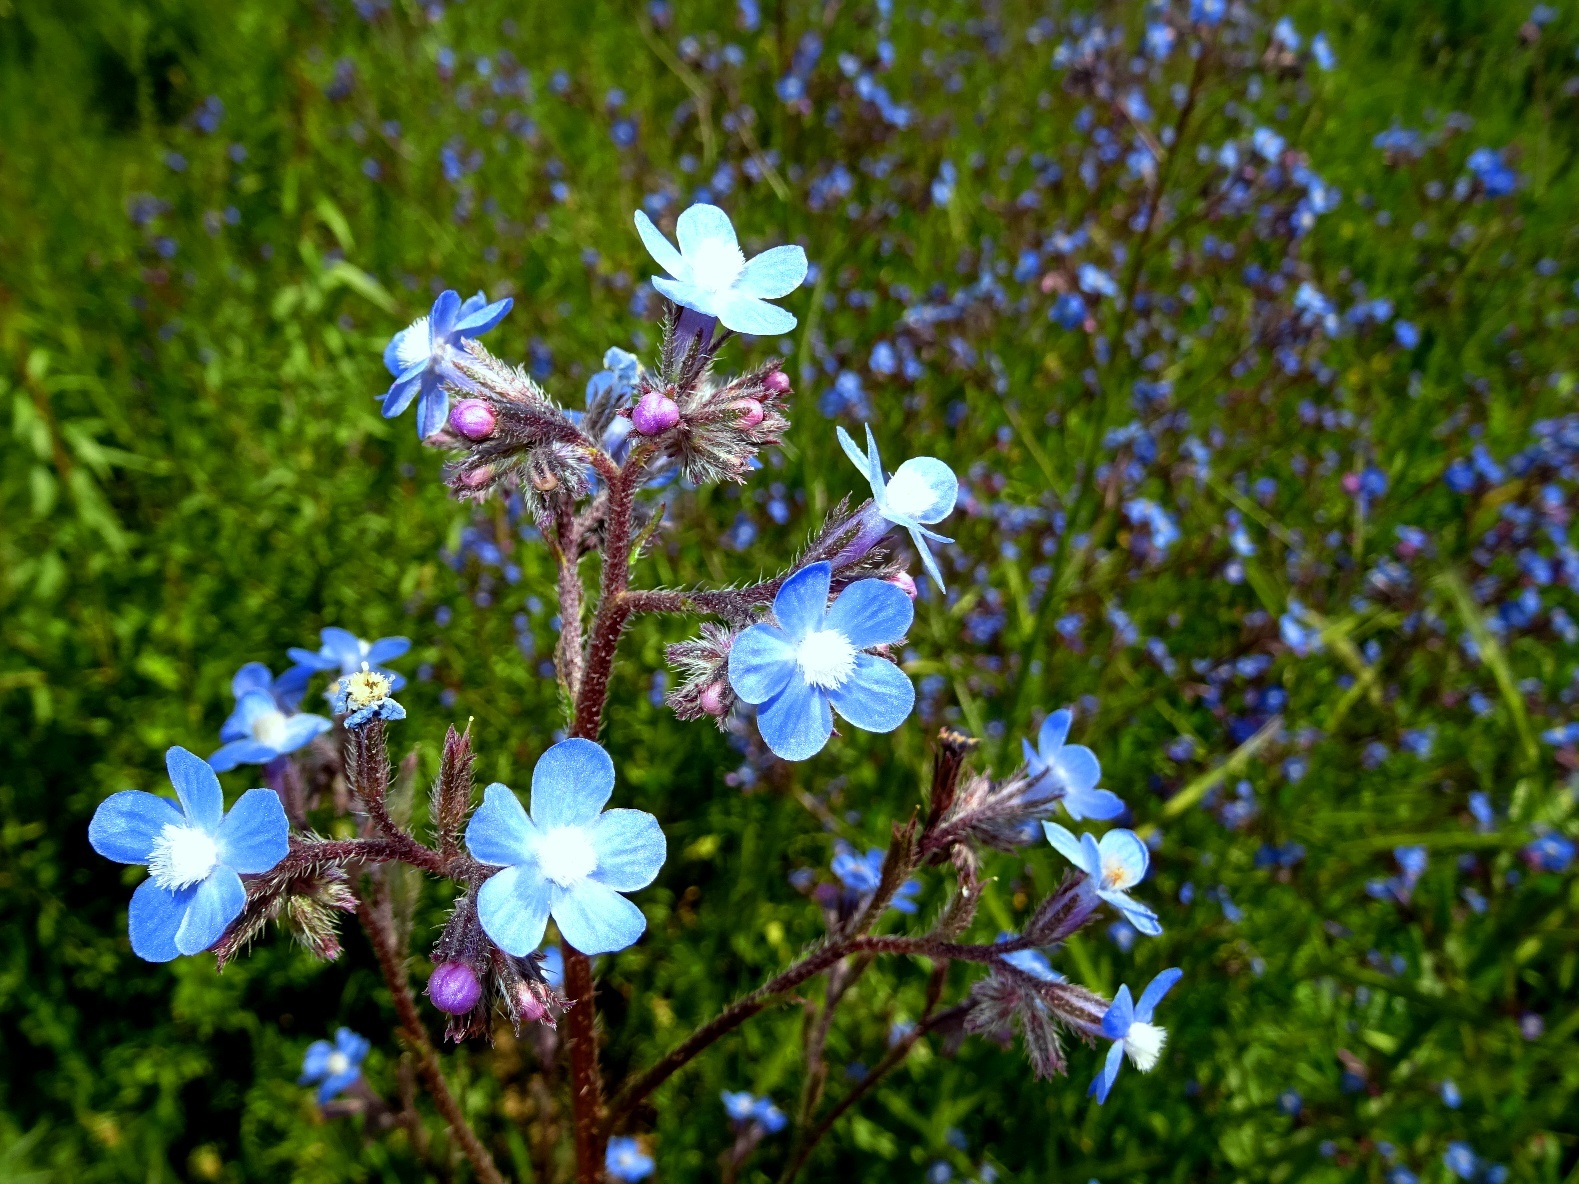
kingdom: Plantae
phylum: Tracheophyta
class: Magnoliopsida
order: Boraginales
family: Boraginaceae
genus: Anchusa
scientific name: Anchusa azurea
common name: Garden anchusa
